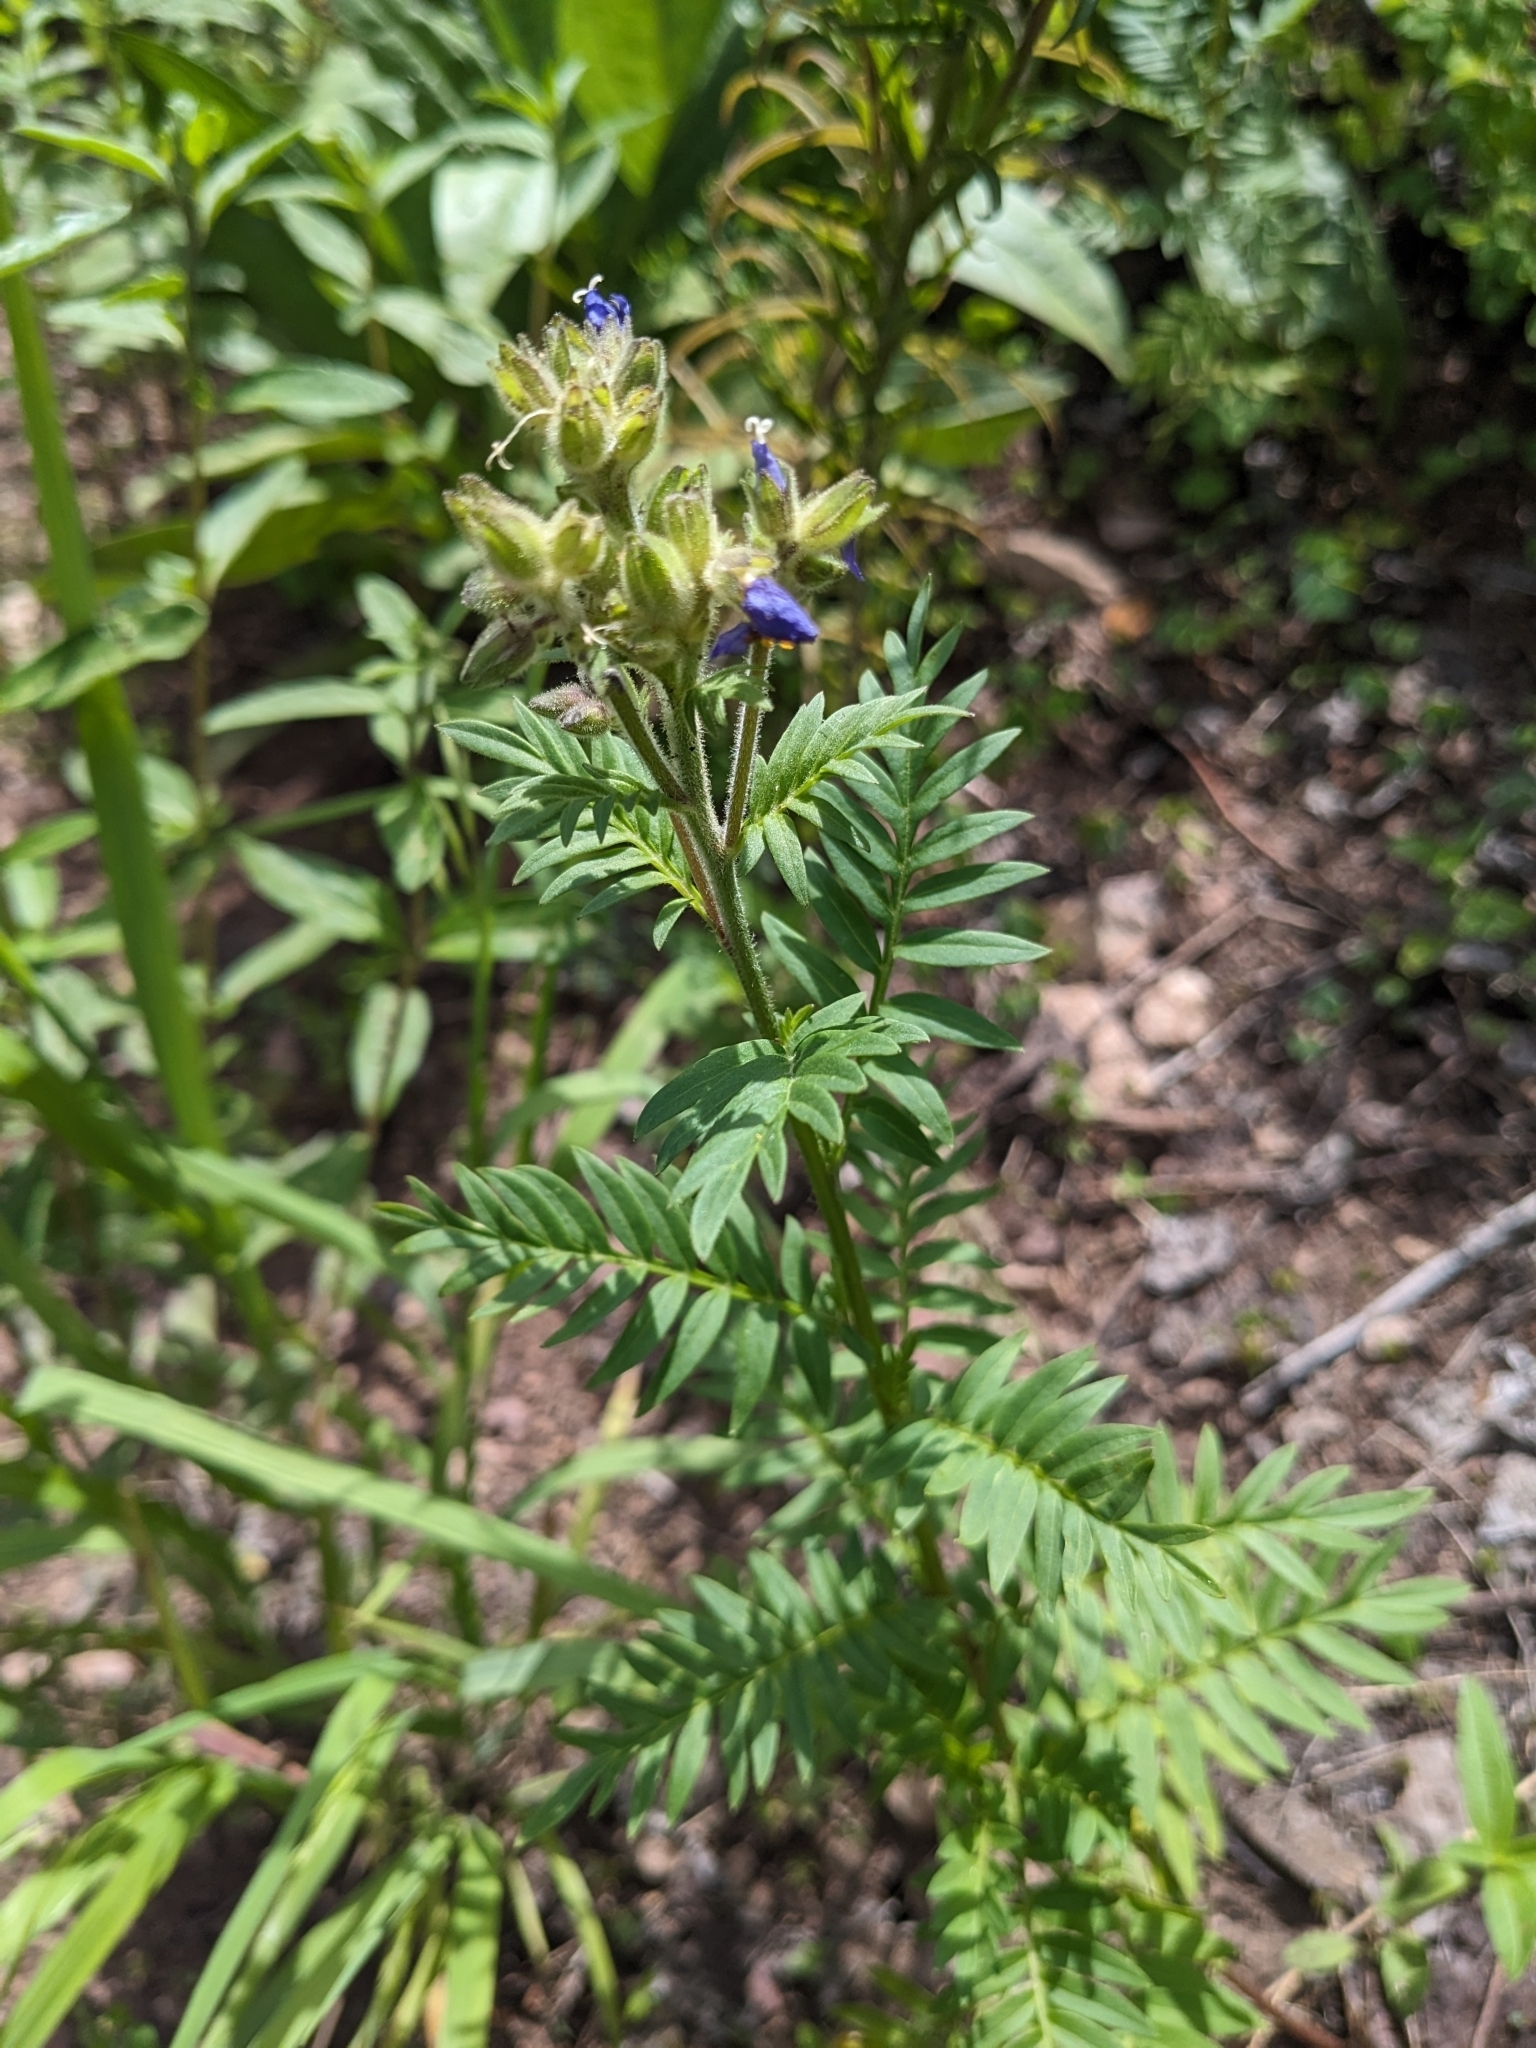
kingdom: Plantae
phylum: Tracheophyta
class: Magnoliopsida
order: Ericales
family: Polemoniaceae
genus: Polemonium
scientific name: Polemonium foliosissimum
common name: Leafy jacob's-ladder
